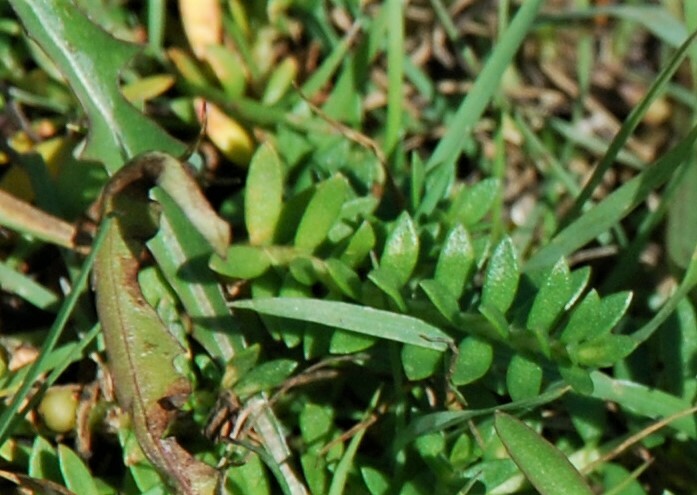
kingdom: Plantae
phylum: Tracheophyta
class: Magnoliopsida
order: Ericales
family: Primulaceae
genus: Lysimachia
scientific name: Lysimachia maritima
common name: Sea milkwort
